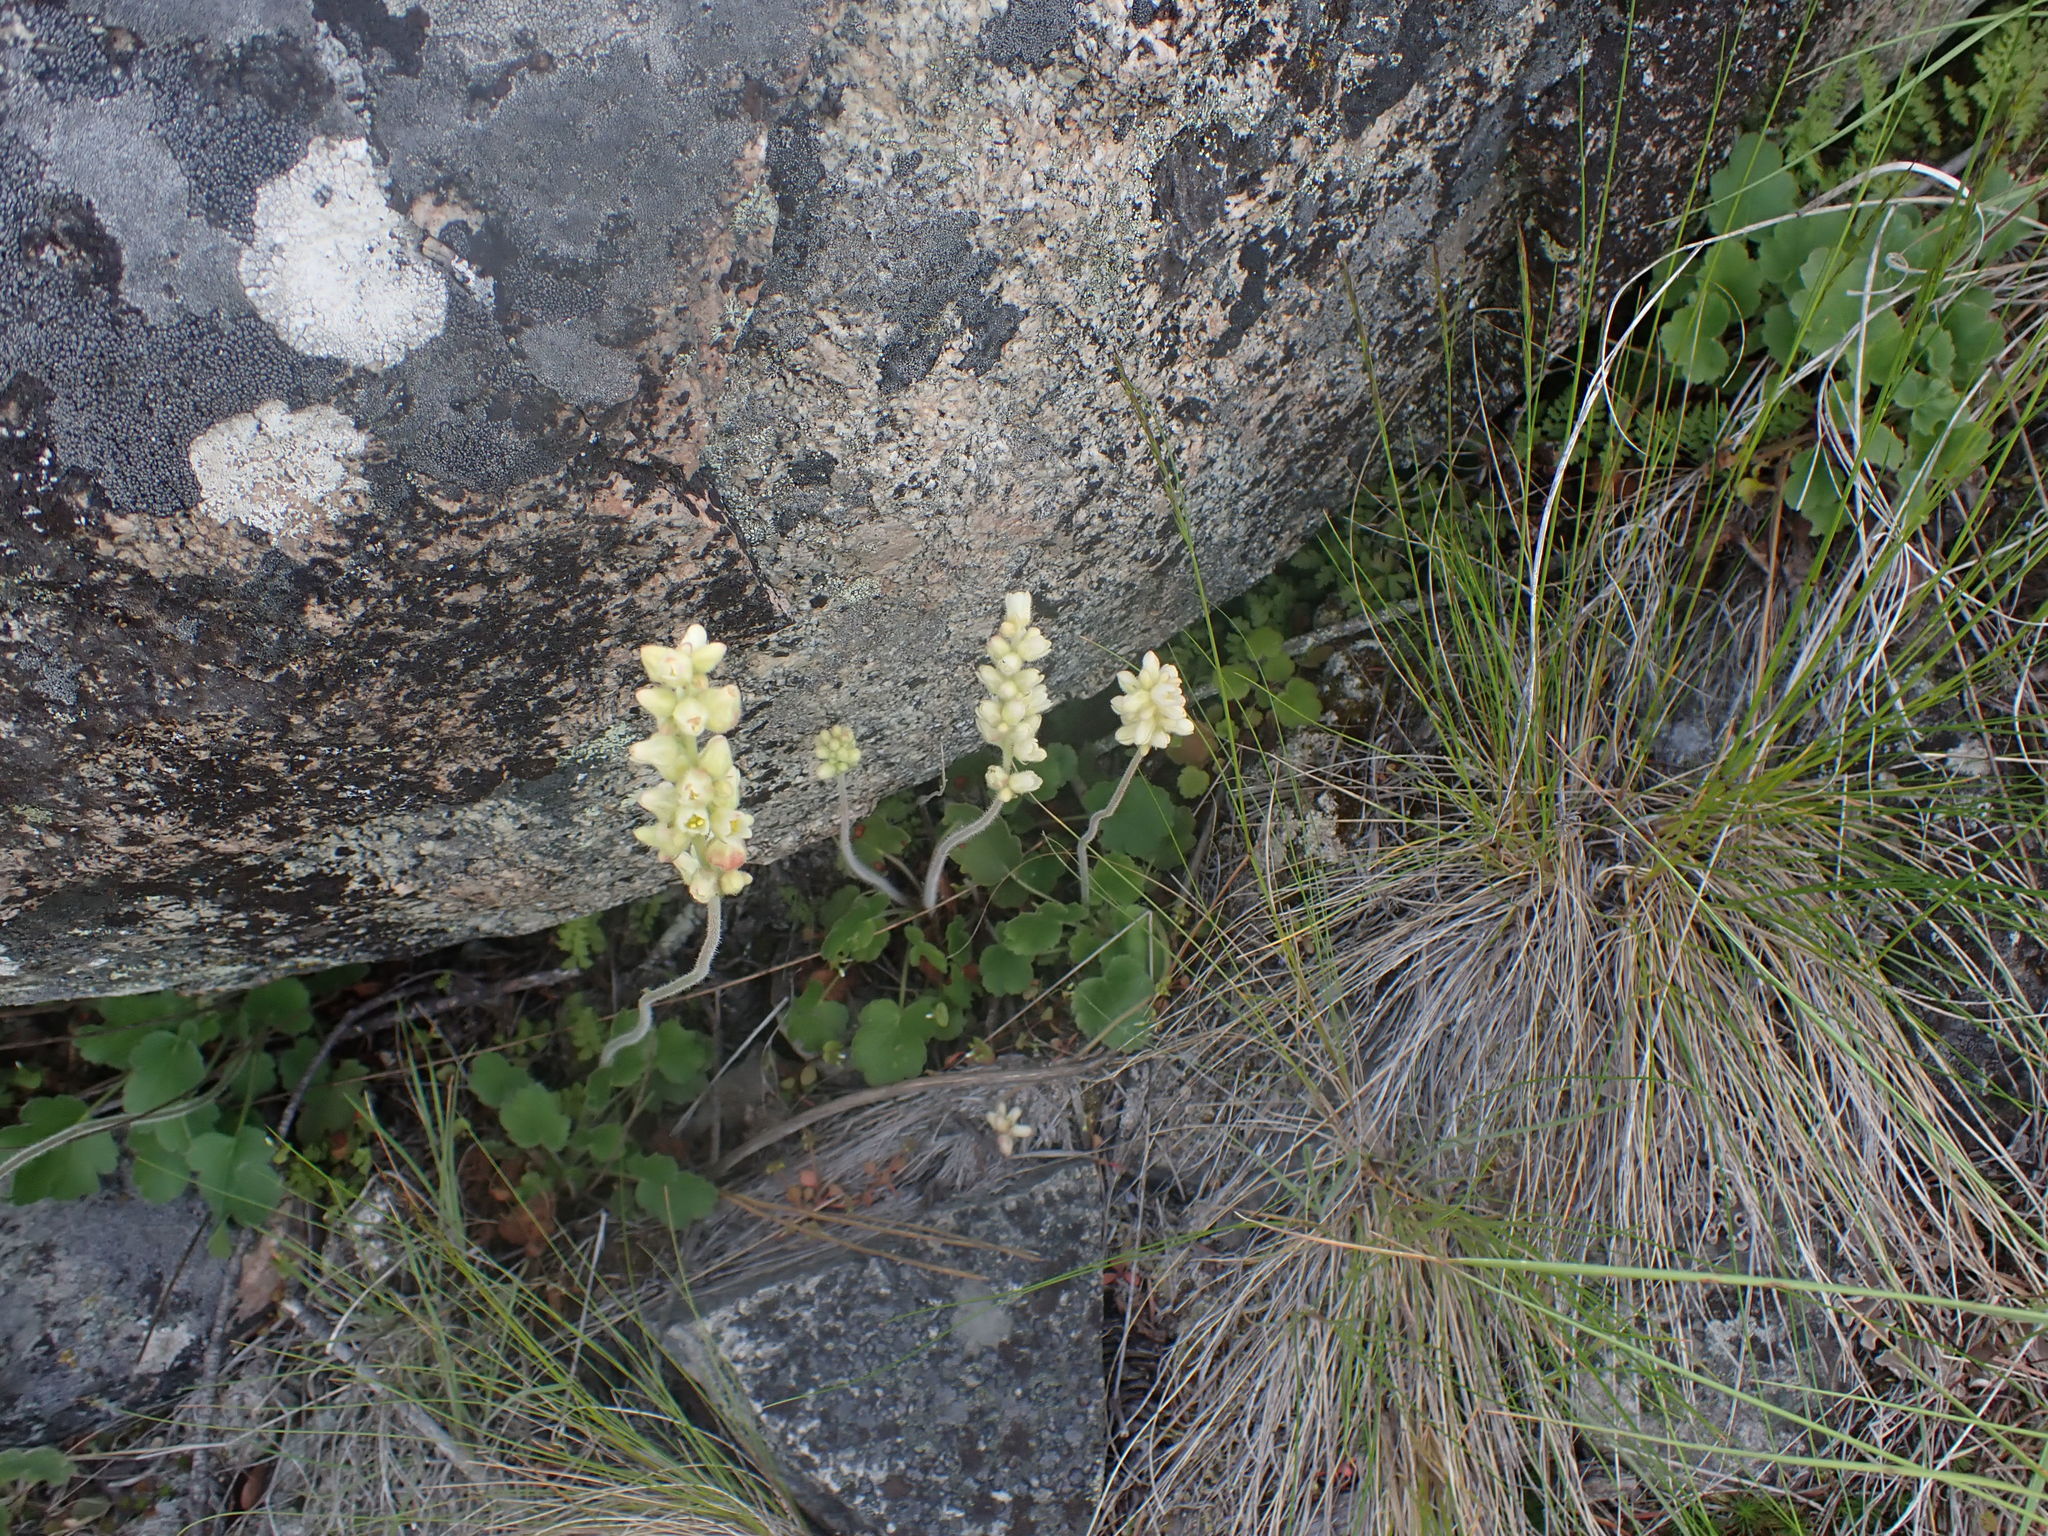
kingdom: Plantae
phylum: Tracheophyta
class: Magnoliopsida
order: Saxifragales
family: Saxifragaceae
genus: Heuchera
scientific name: Heuchera cylindrica
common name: Mat alumroot
